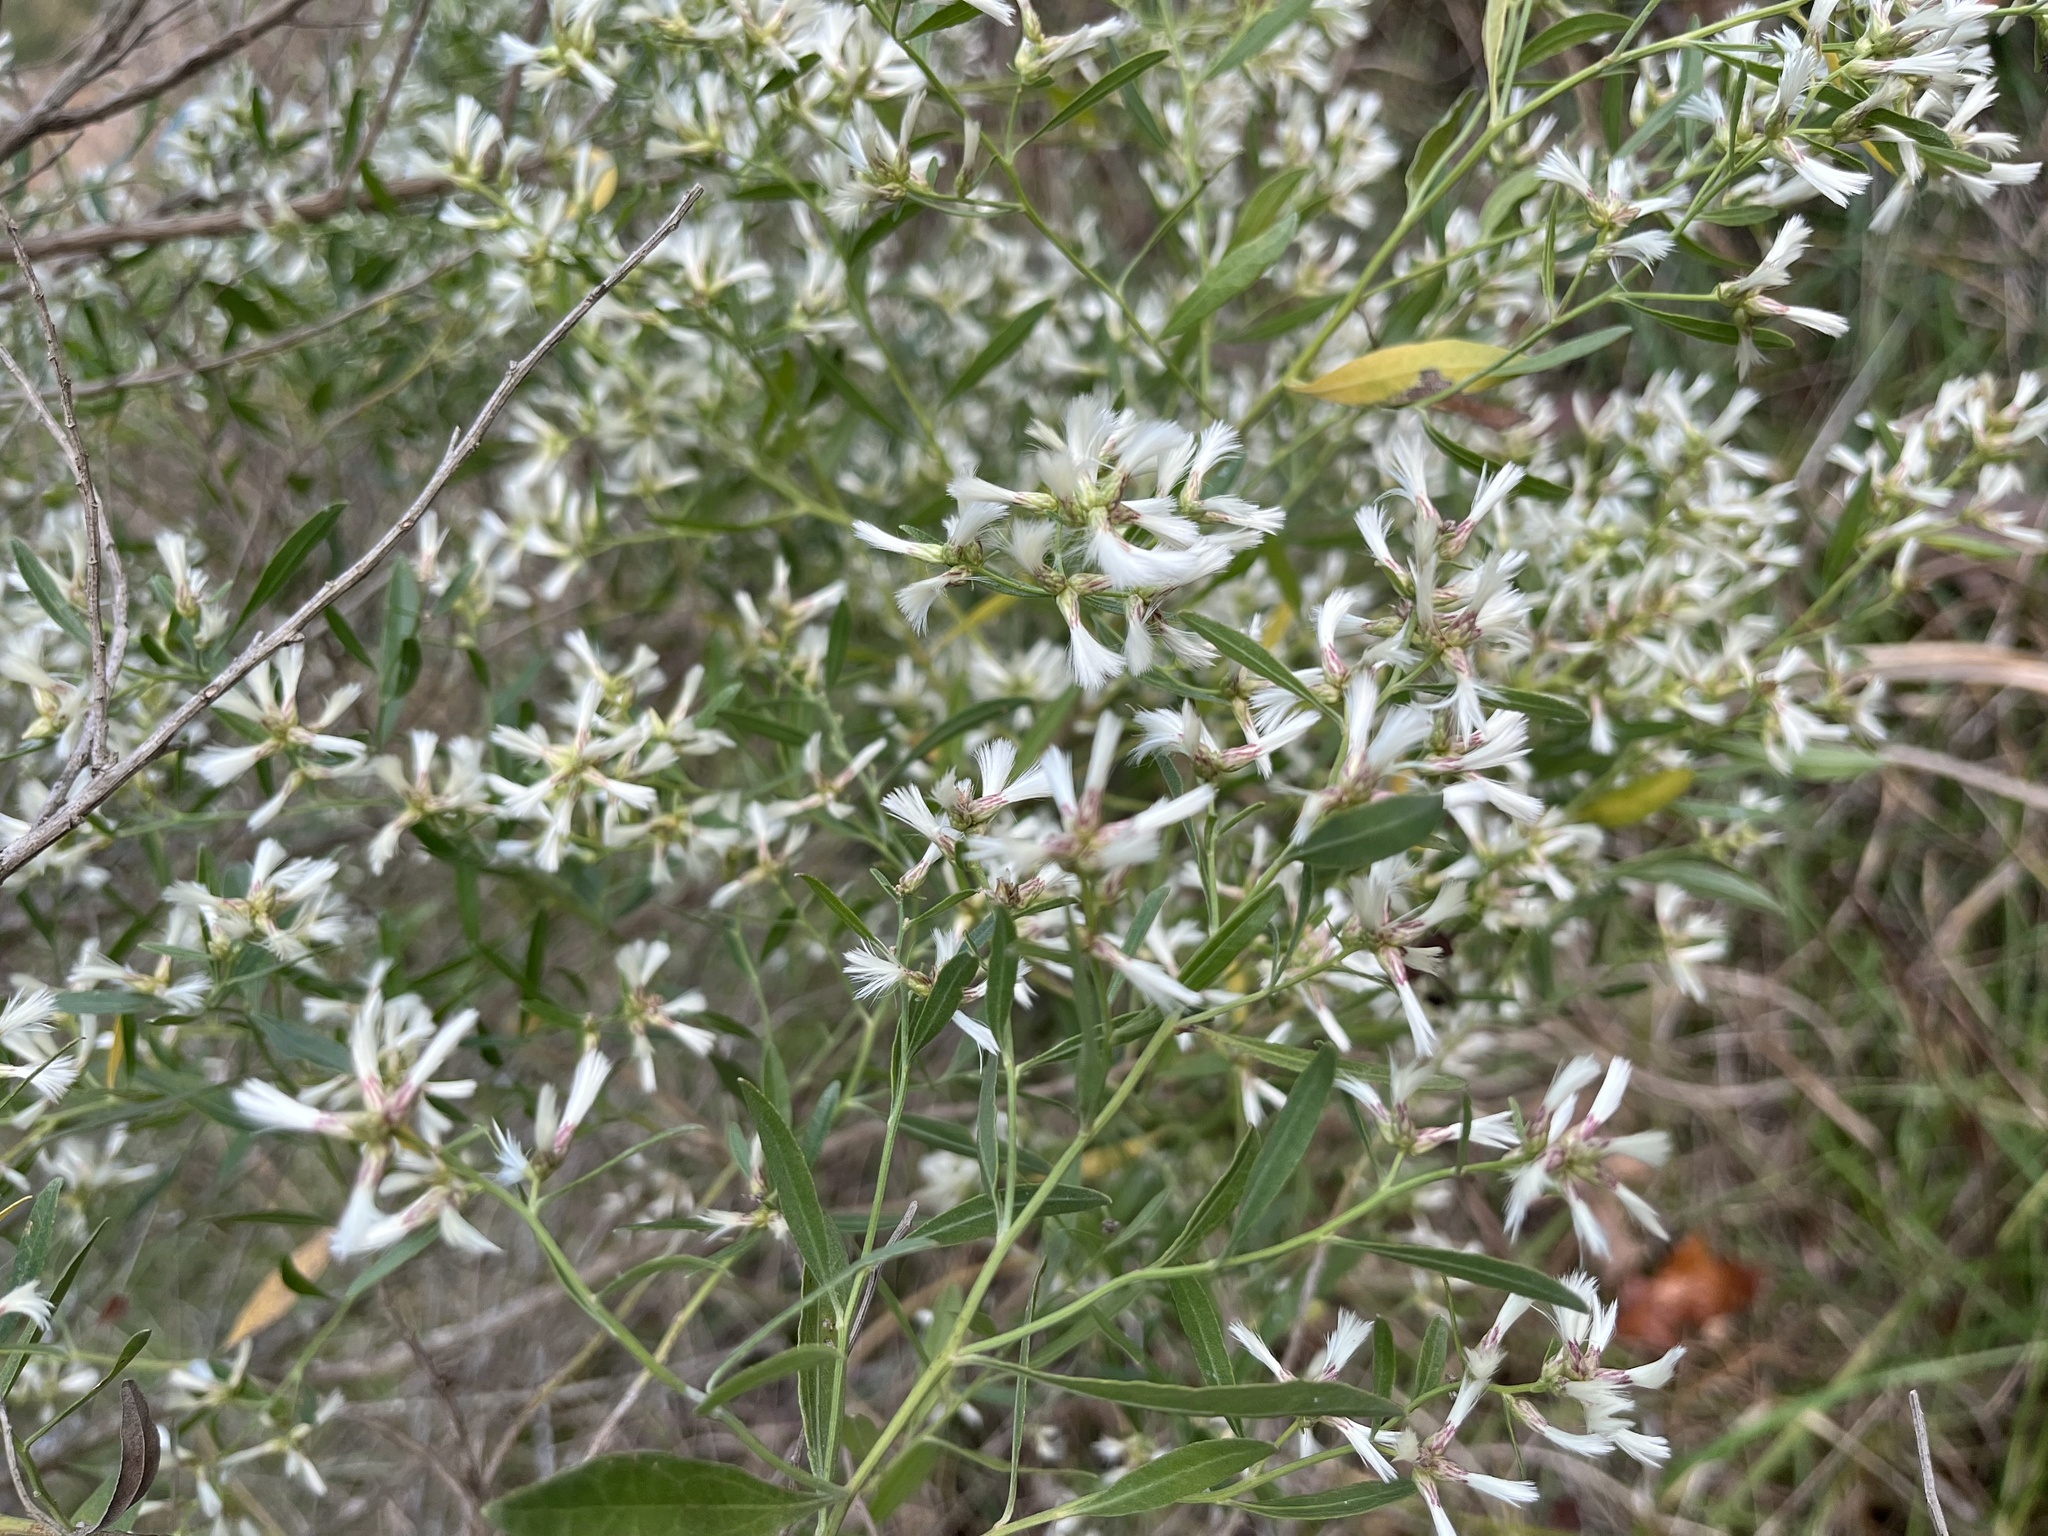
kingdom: Plantae
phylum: Tracheophyta
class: Magnoliopsida
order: Asterales
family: Asteraceae
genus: Baccharis
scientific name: Baccharis halimifolia
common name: Eastern baccharis
